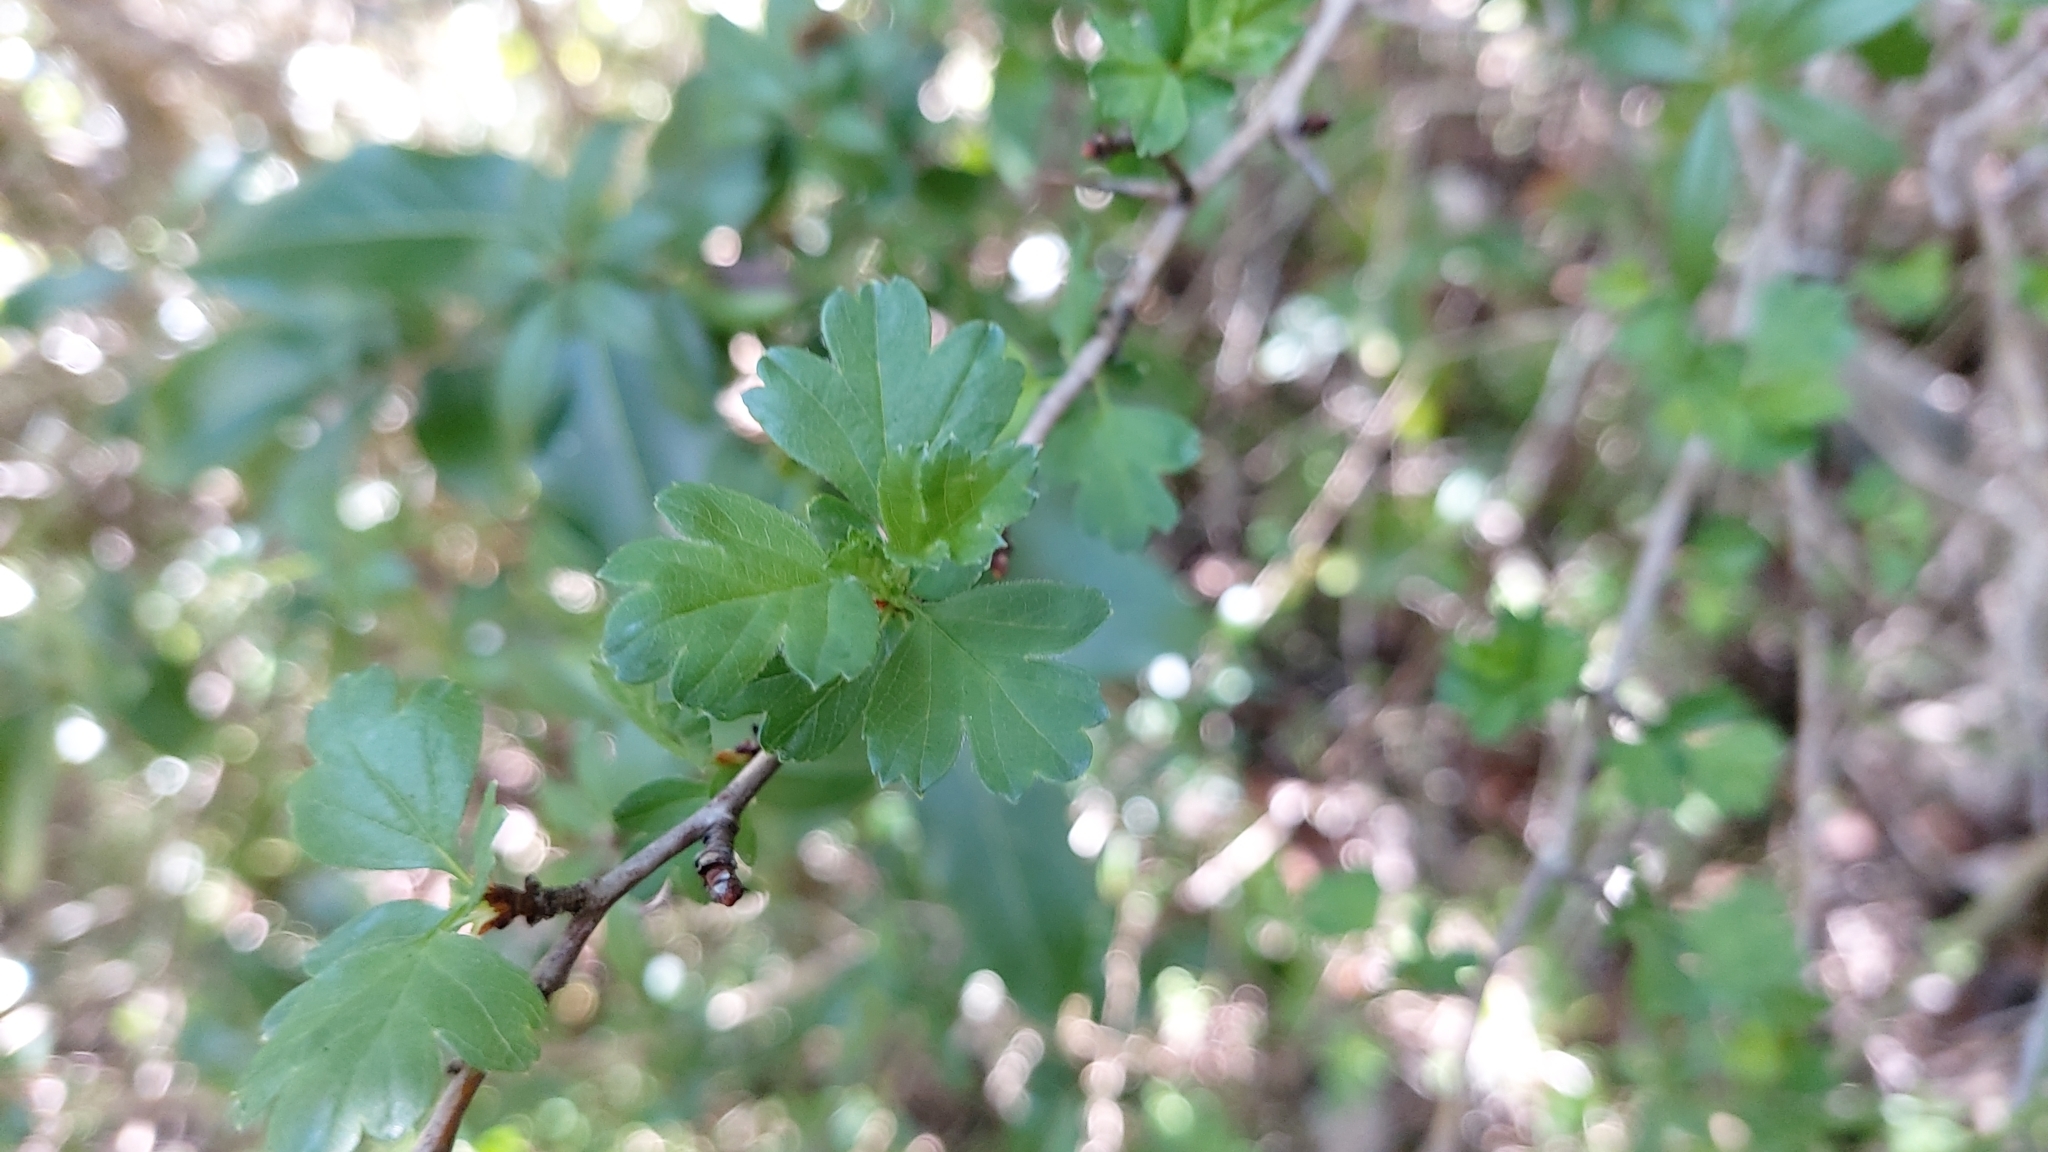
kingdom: Plantae
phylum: Tracheophyta
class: Magnoliopsida
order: Rosales
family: Rosaceae
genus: Crataegus
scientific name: Crataegus monogyna
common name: Hawthorn
